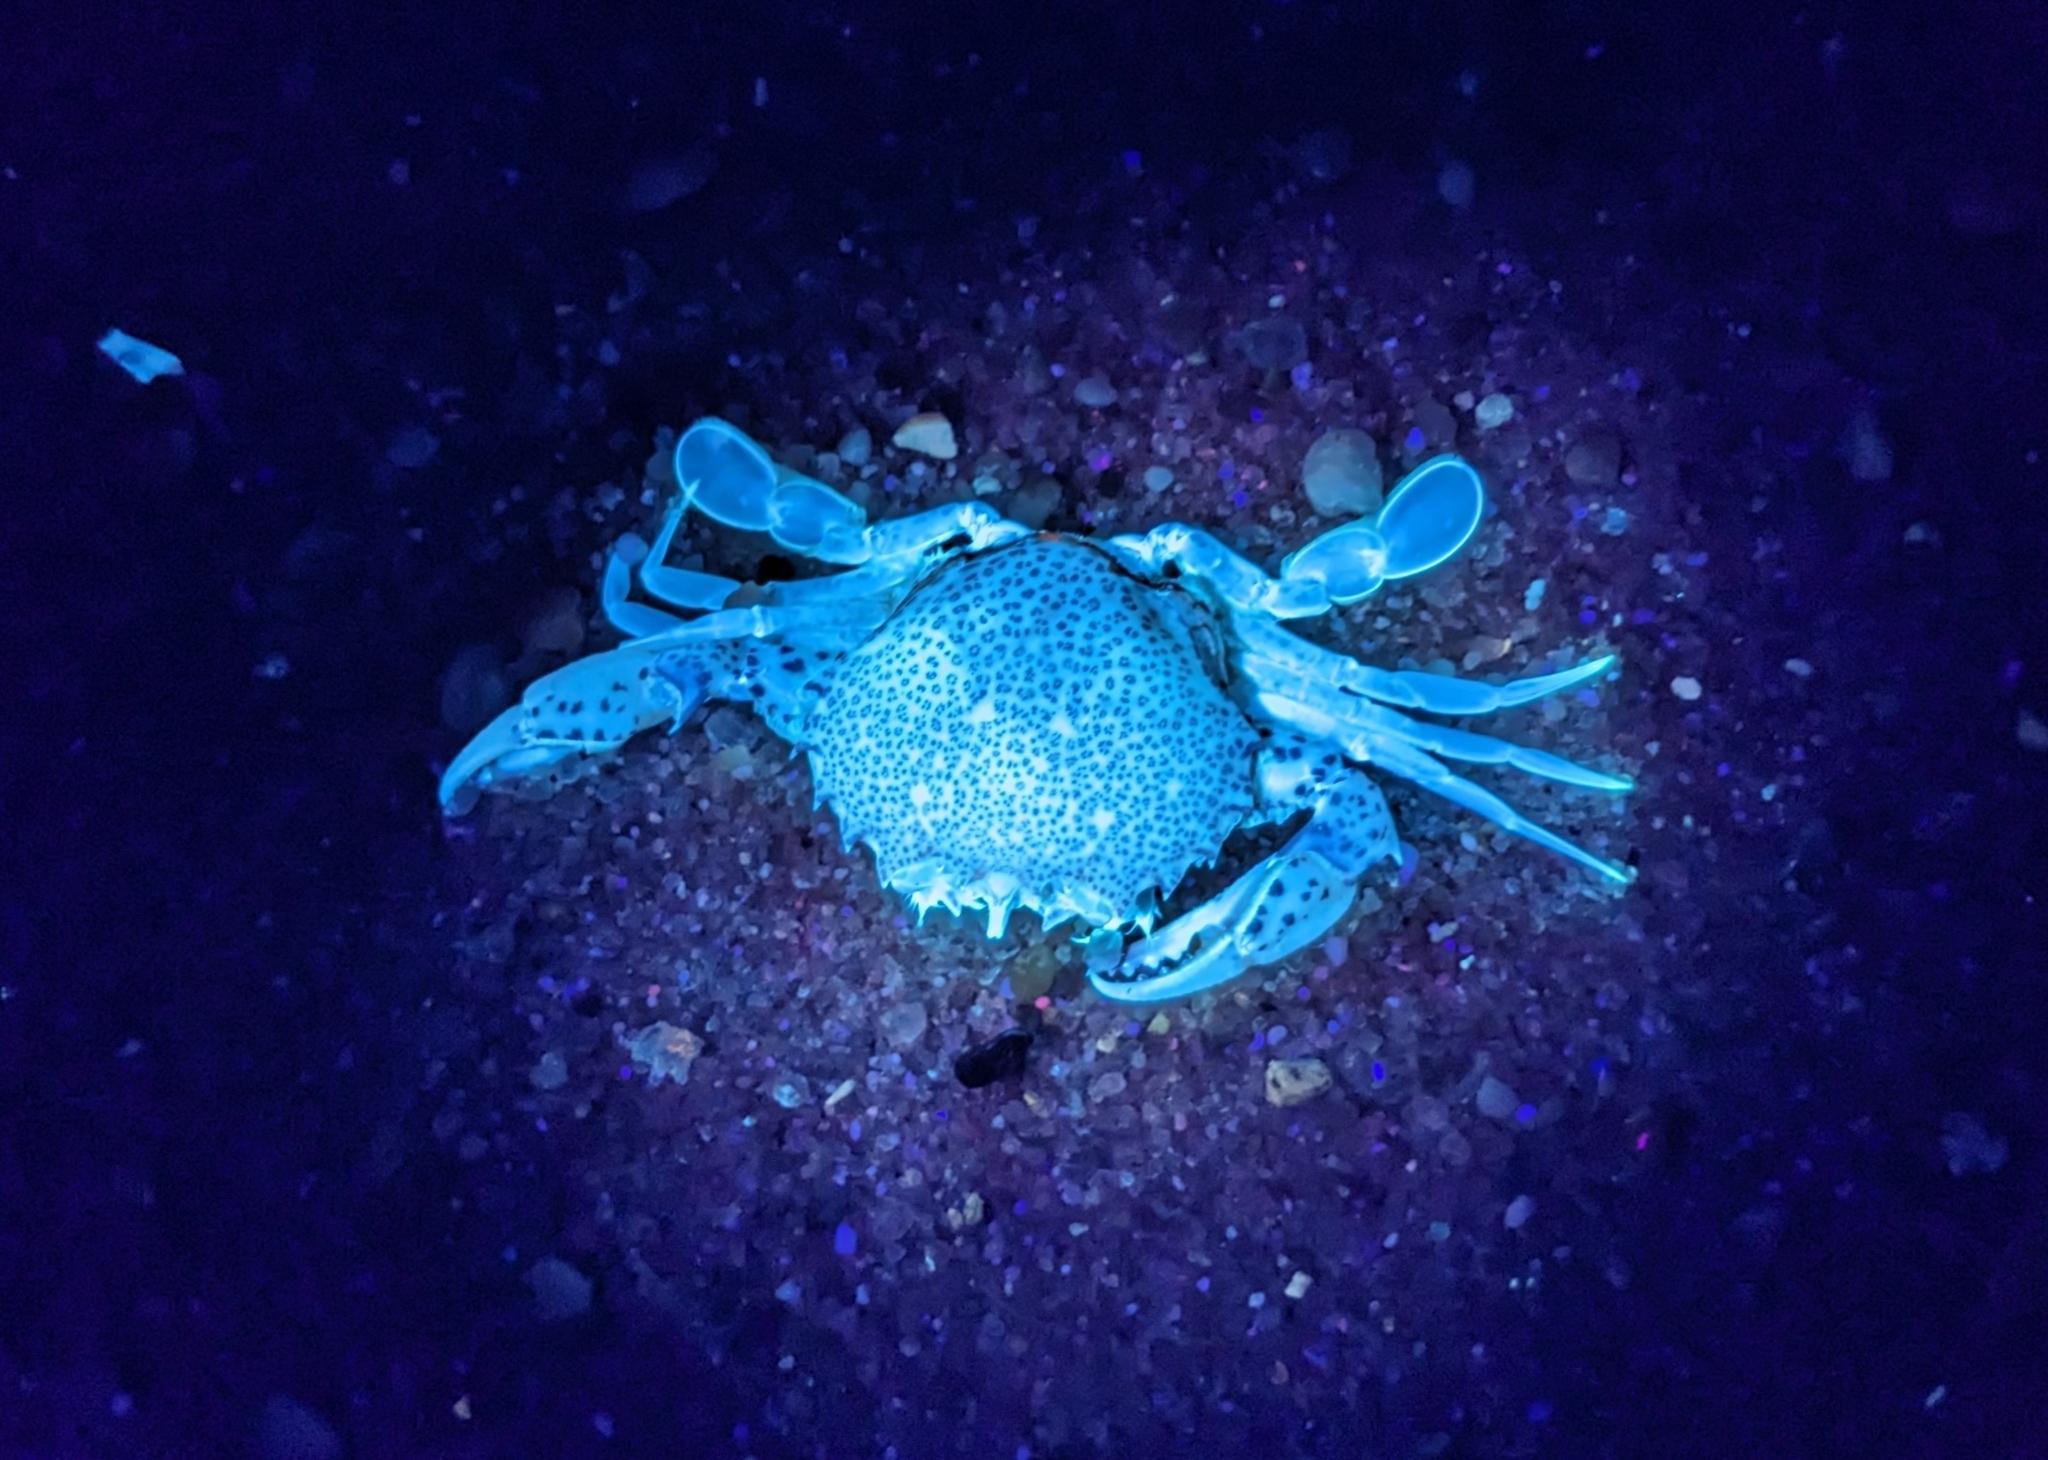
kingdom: Animalia
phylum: Arthropoda
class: Malacostraca
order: Decapoda
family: Ovalipidae
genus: Ovalipes
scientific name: Ovalipes ocellatus
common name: Lady crab
